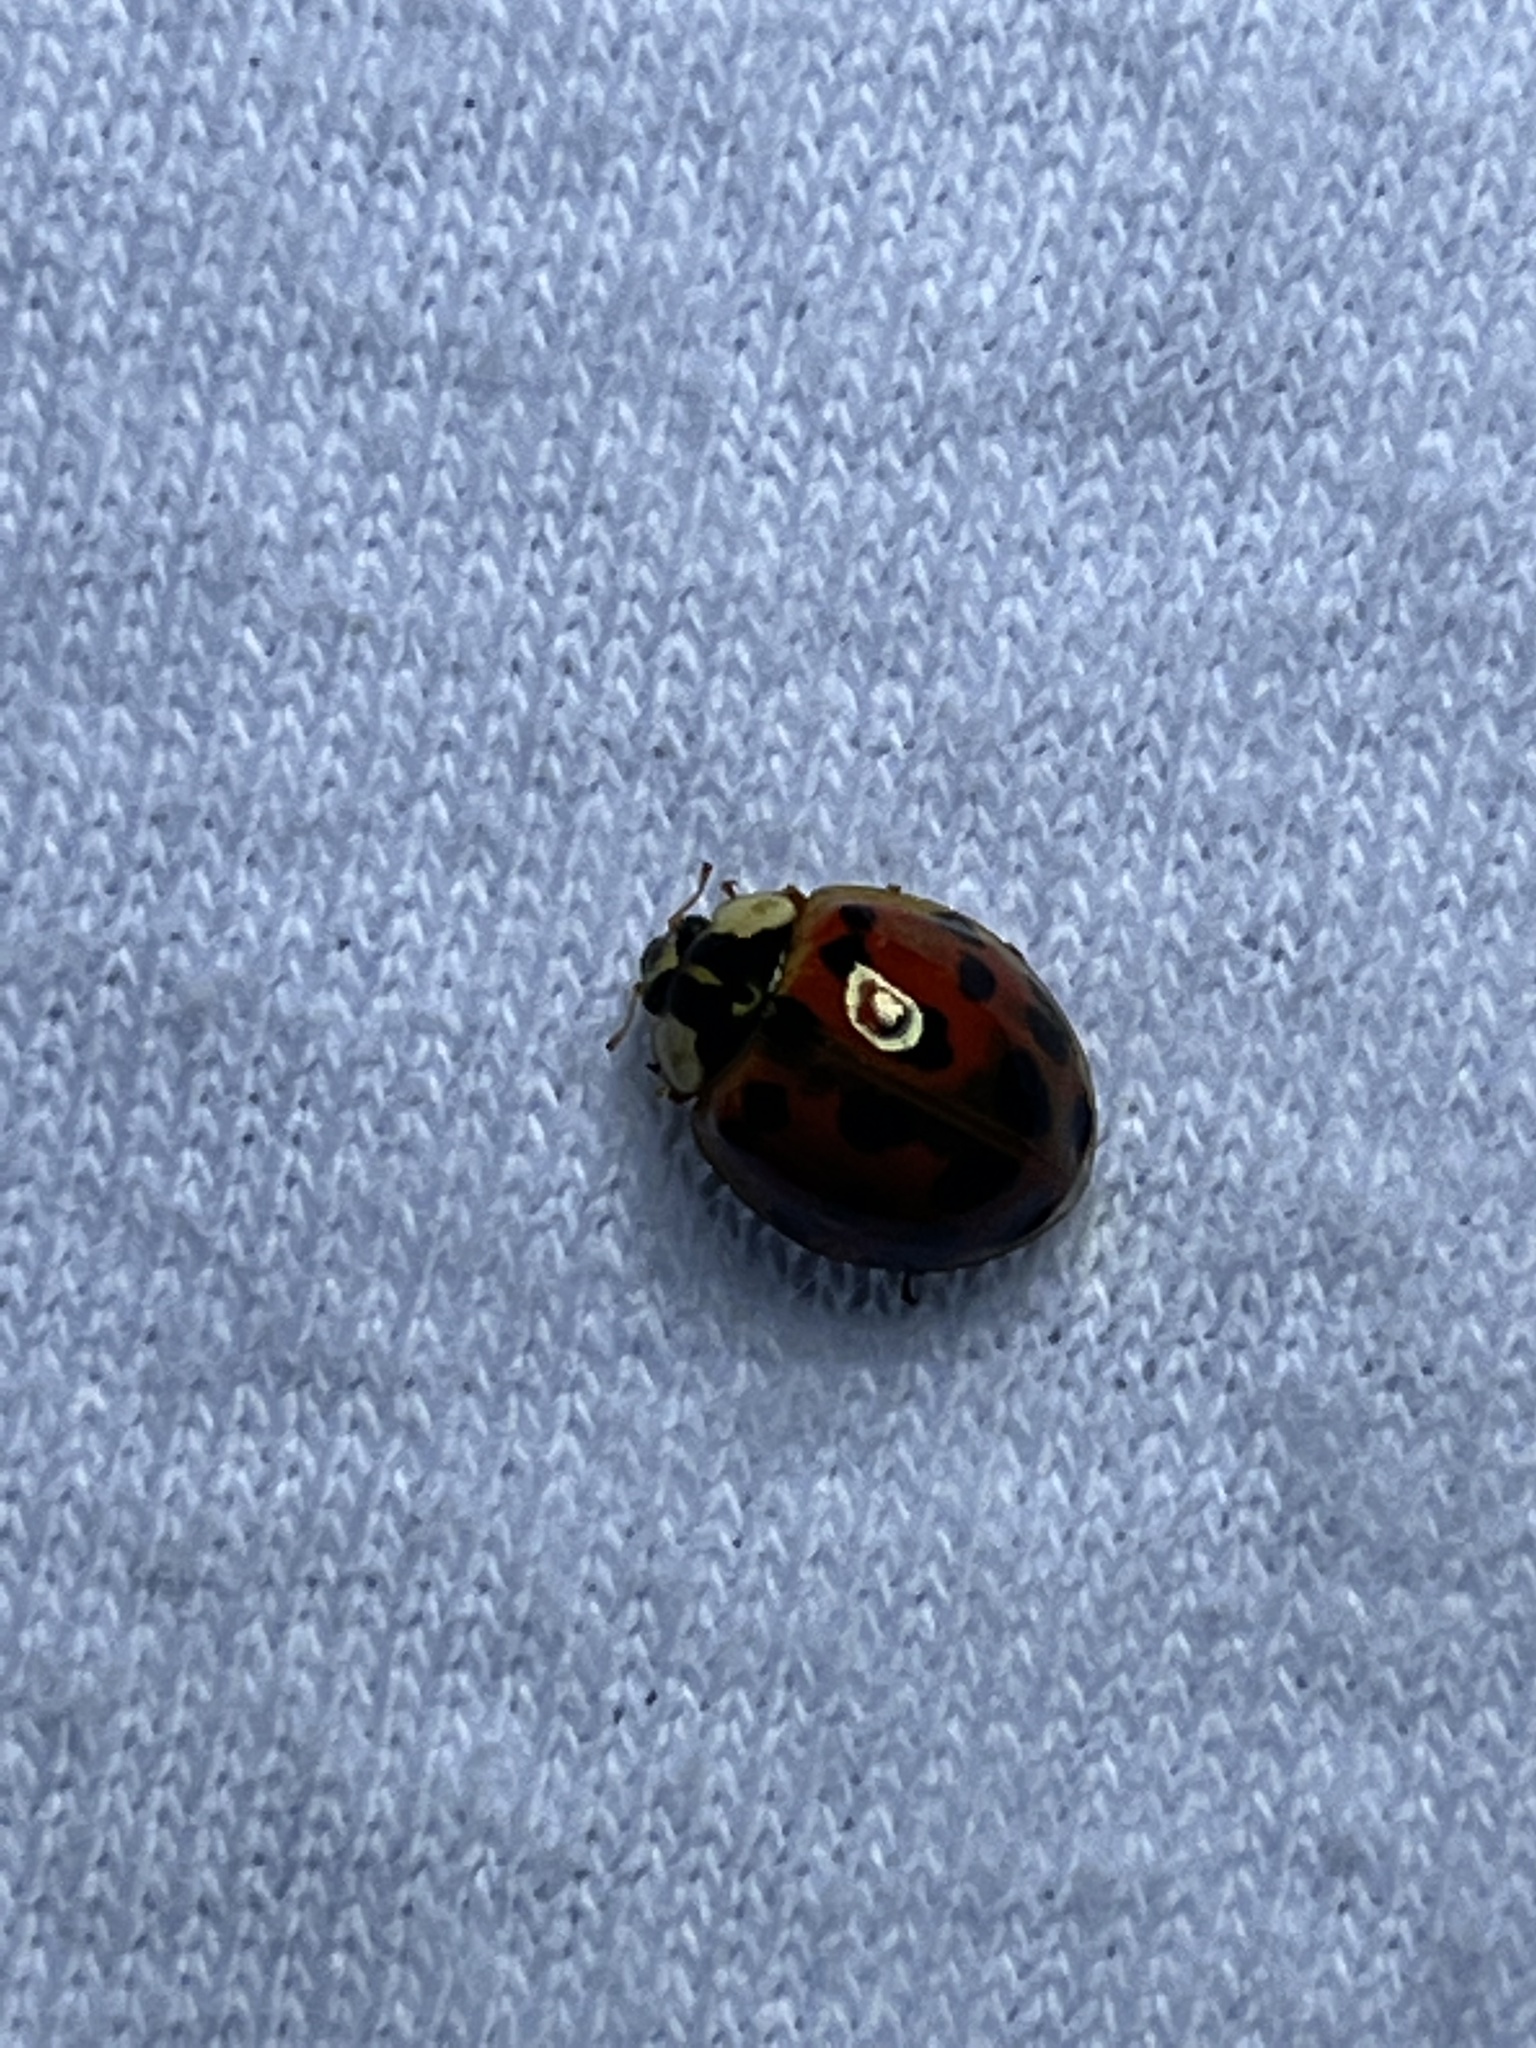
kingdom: Animalia
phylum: Arthropoda
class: Insecta
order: Coleoptera
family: Coccinellidae
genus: Harmonia
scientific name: Harmonia axyridis
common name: Harlequin ladybird
